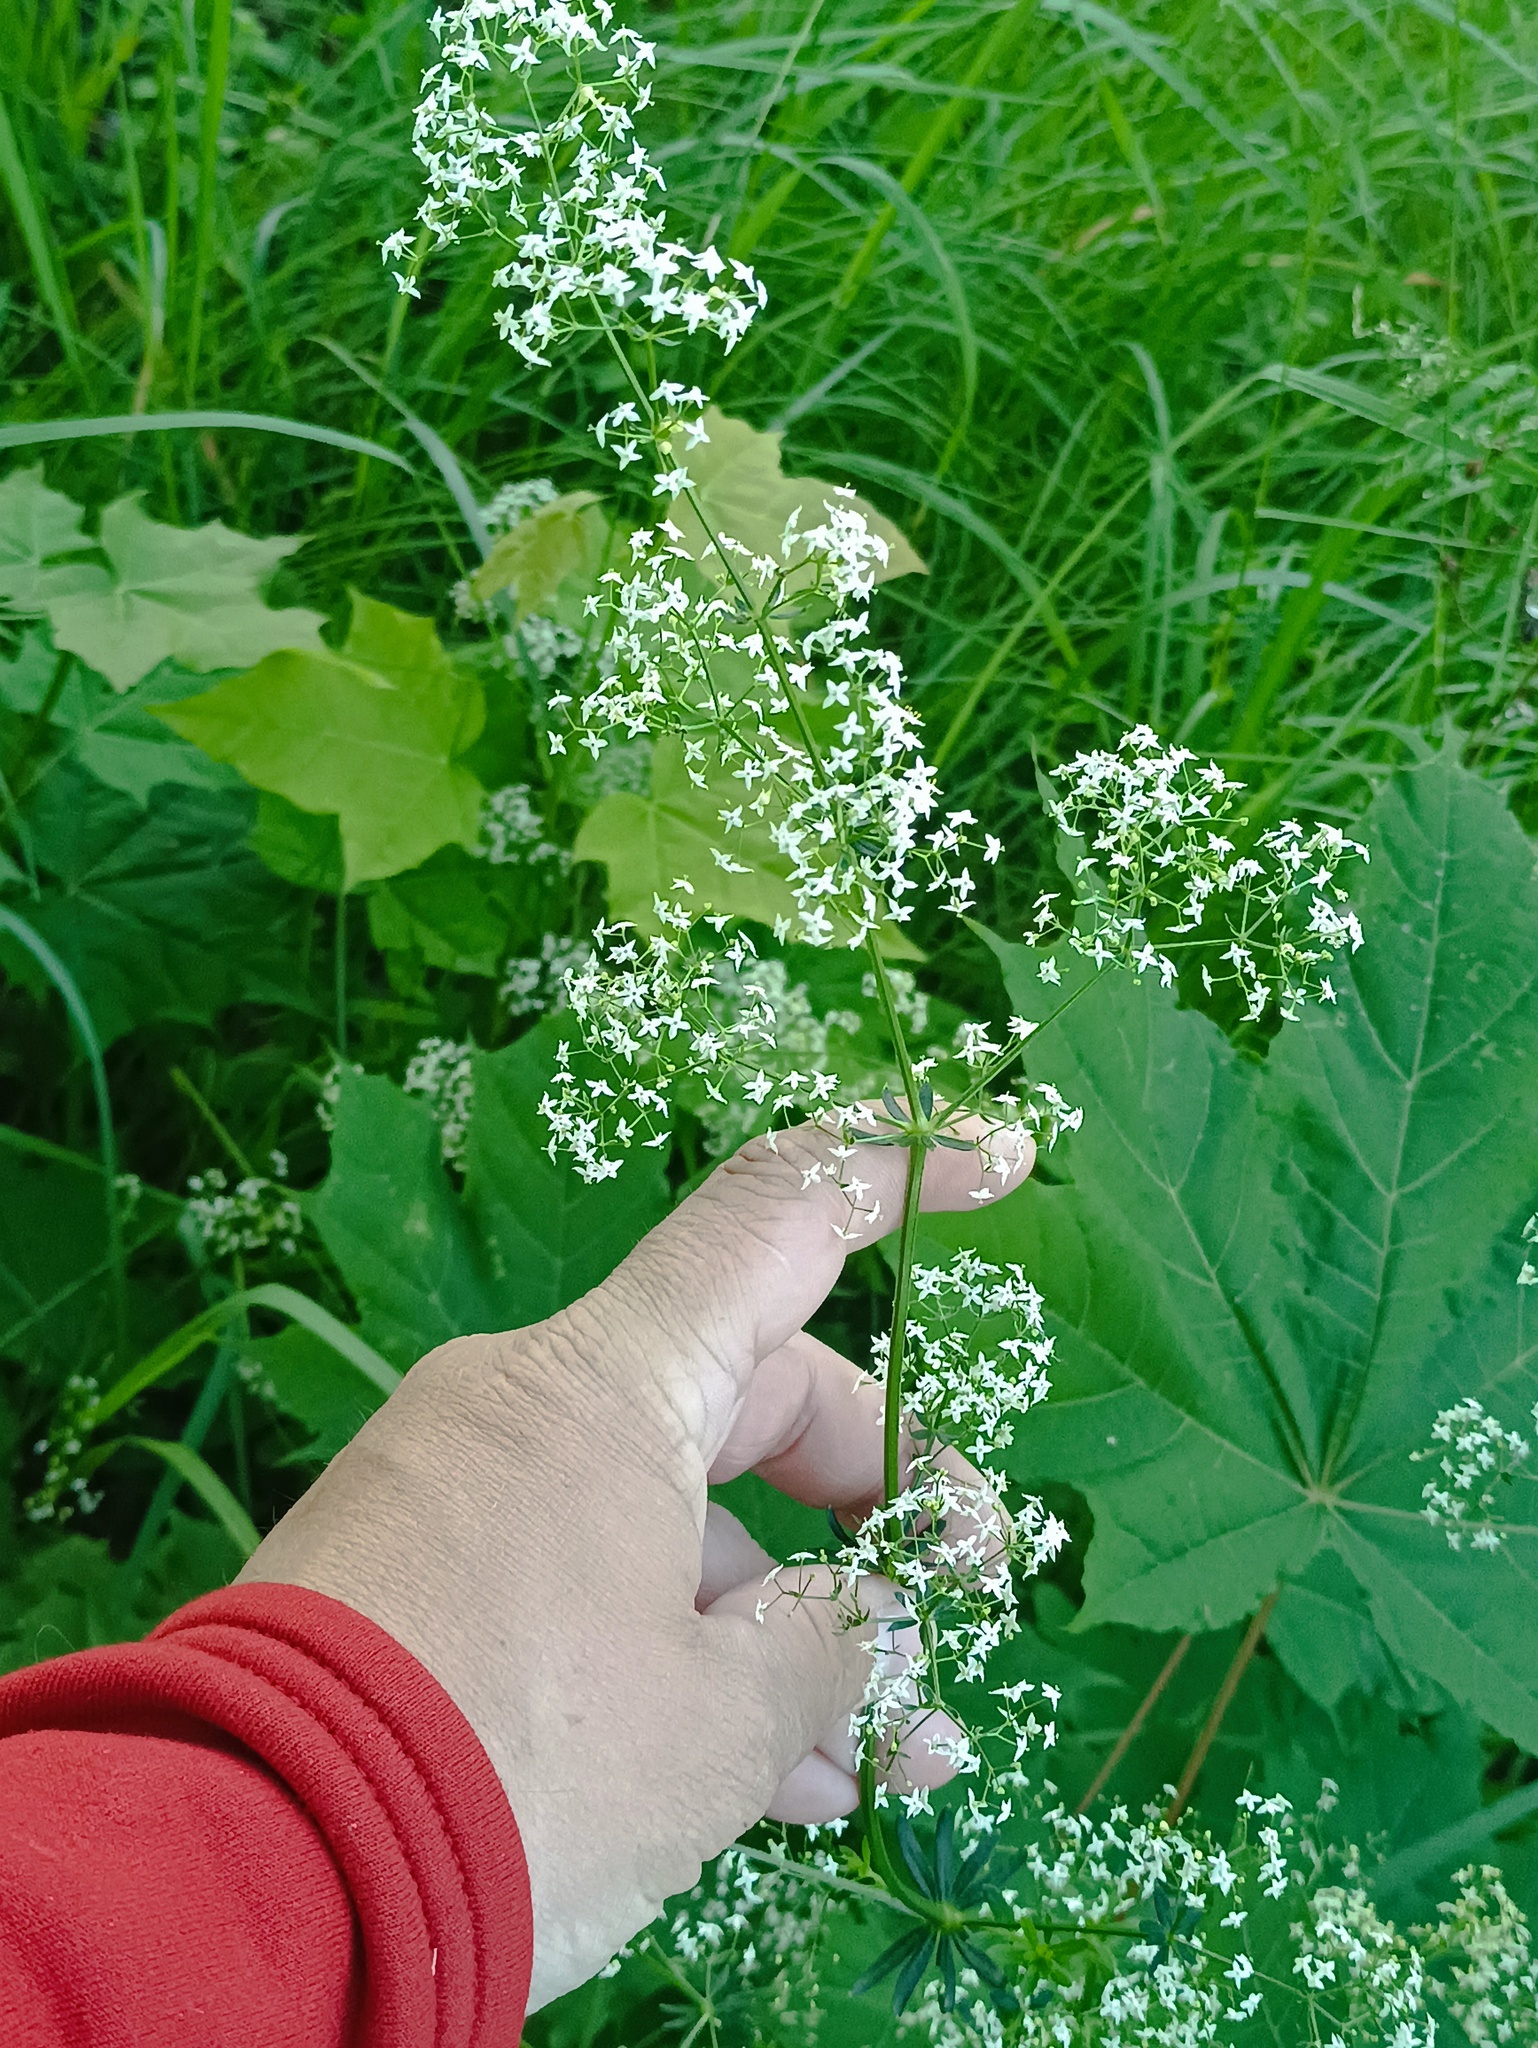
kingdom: Plantae
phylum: Tracheophyta
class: Magnoliopsida
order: Gentianales
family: Rubiaceae
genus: Galium
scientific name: Galium mollugo
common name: Hedge bedstraw
